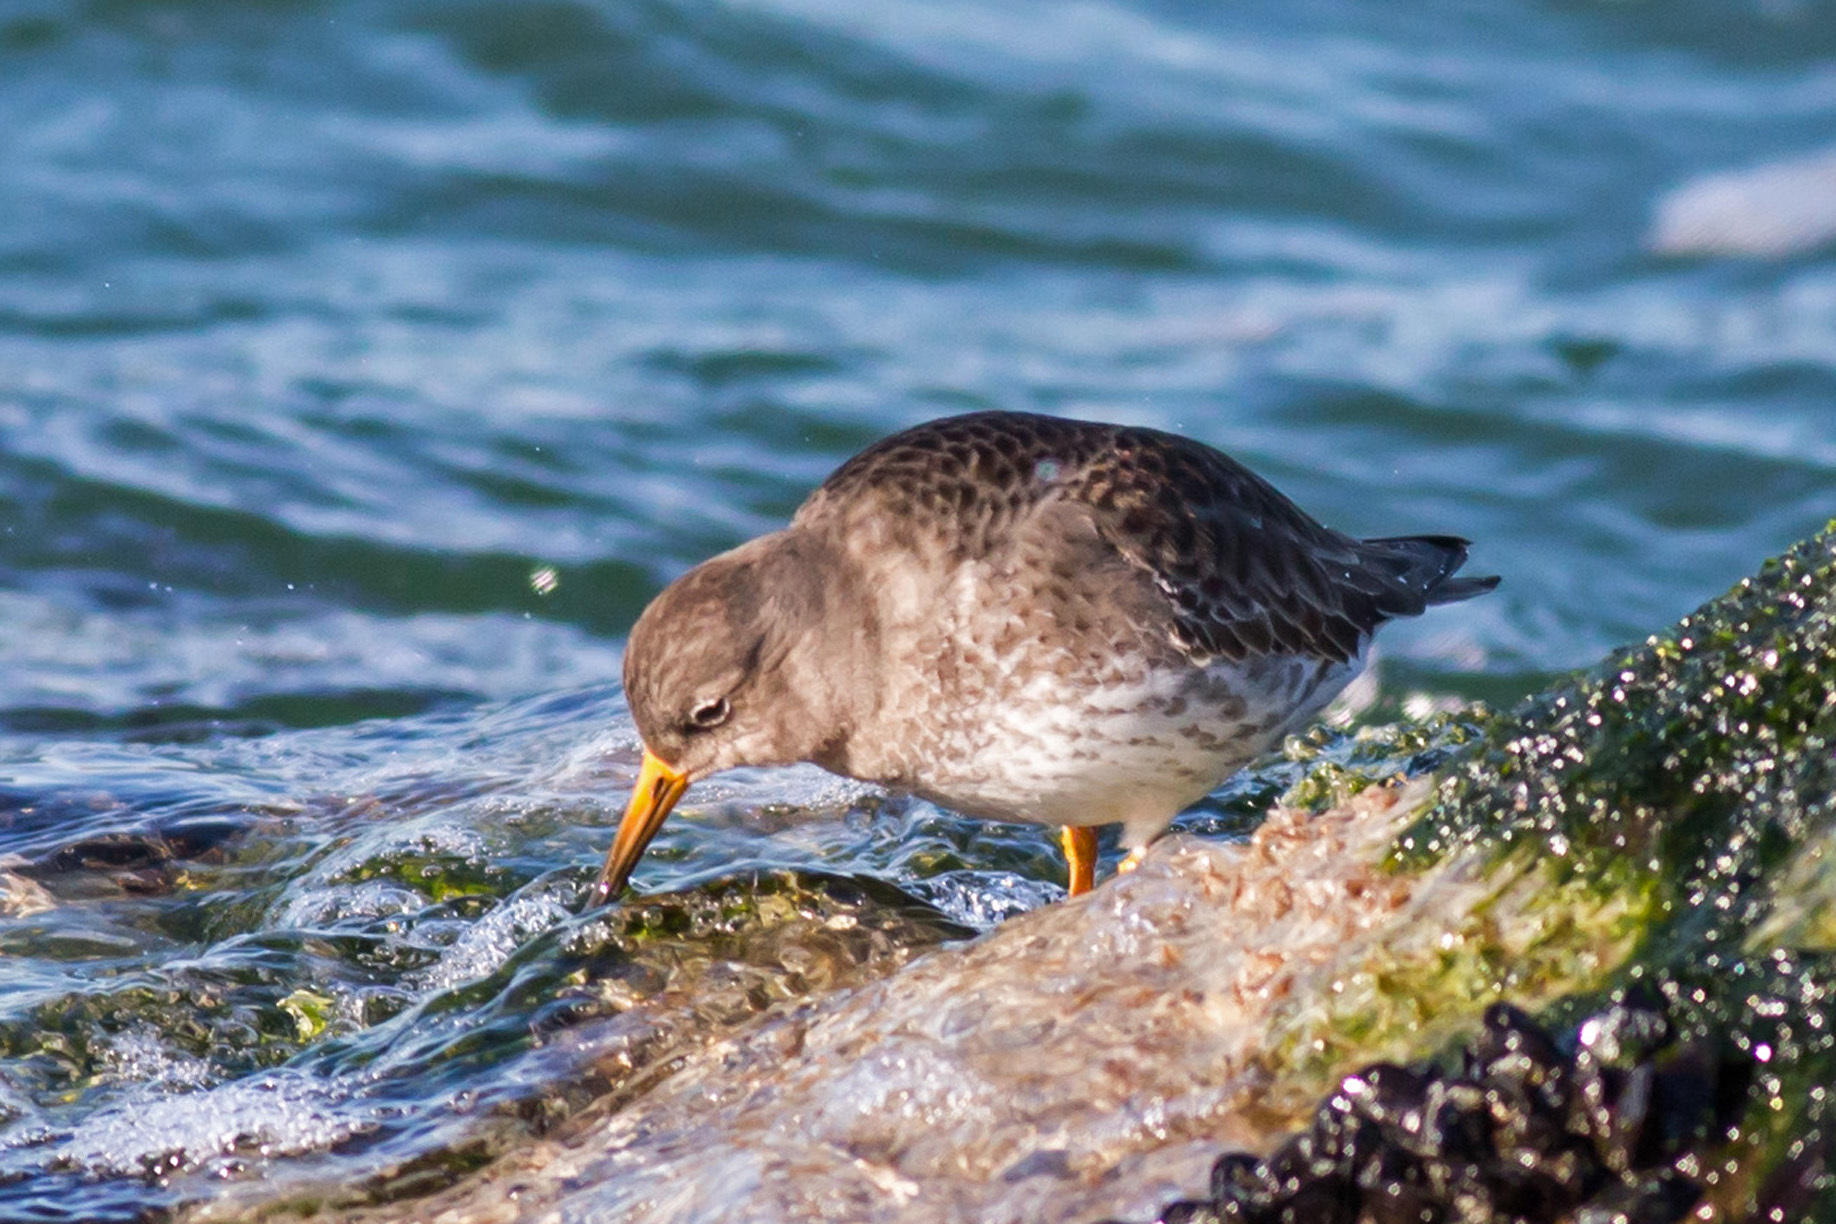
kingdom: Animalia
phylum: Chordata
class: Aves
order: Charadriiformes
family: Scolopacidae
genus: Calidris
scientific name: Calidris maritima
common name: Purple sandpiper
